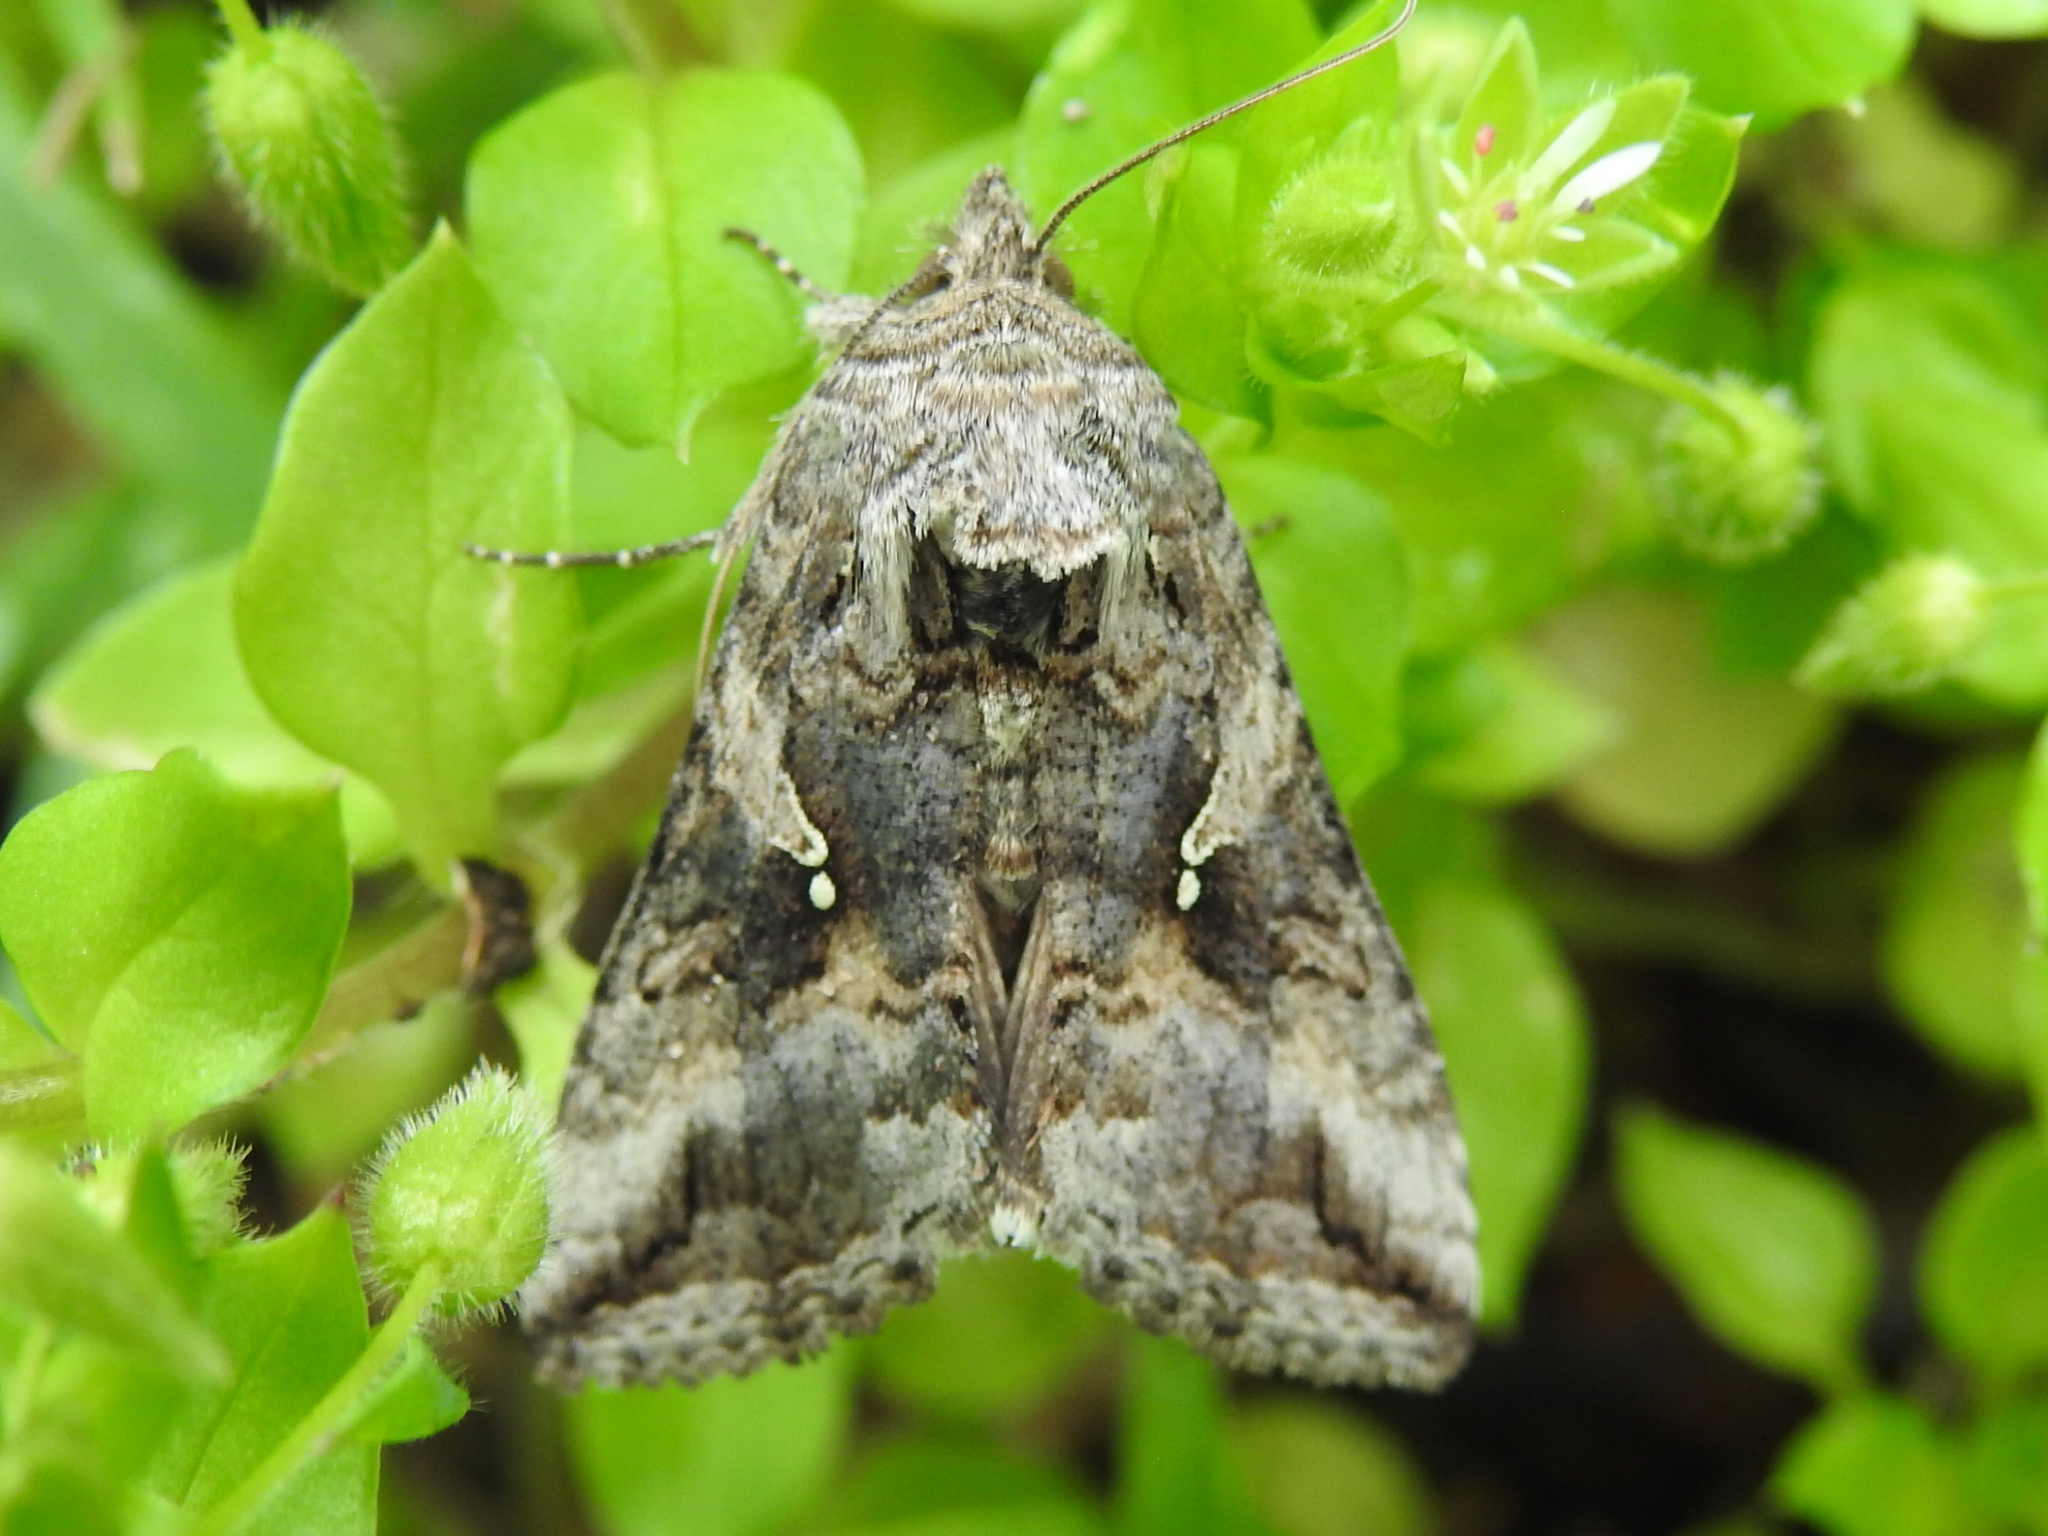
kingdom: Animalia
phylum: Arthropoda
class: Insecta
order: Lepidoptera
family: Noctuidae
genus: Rachiplusia
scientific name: Rachiplusia ou
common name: Gray looper moth
